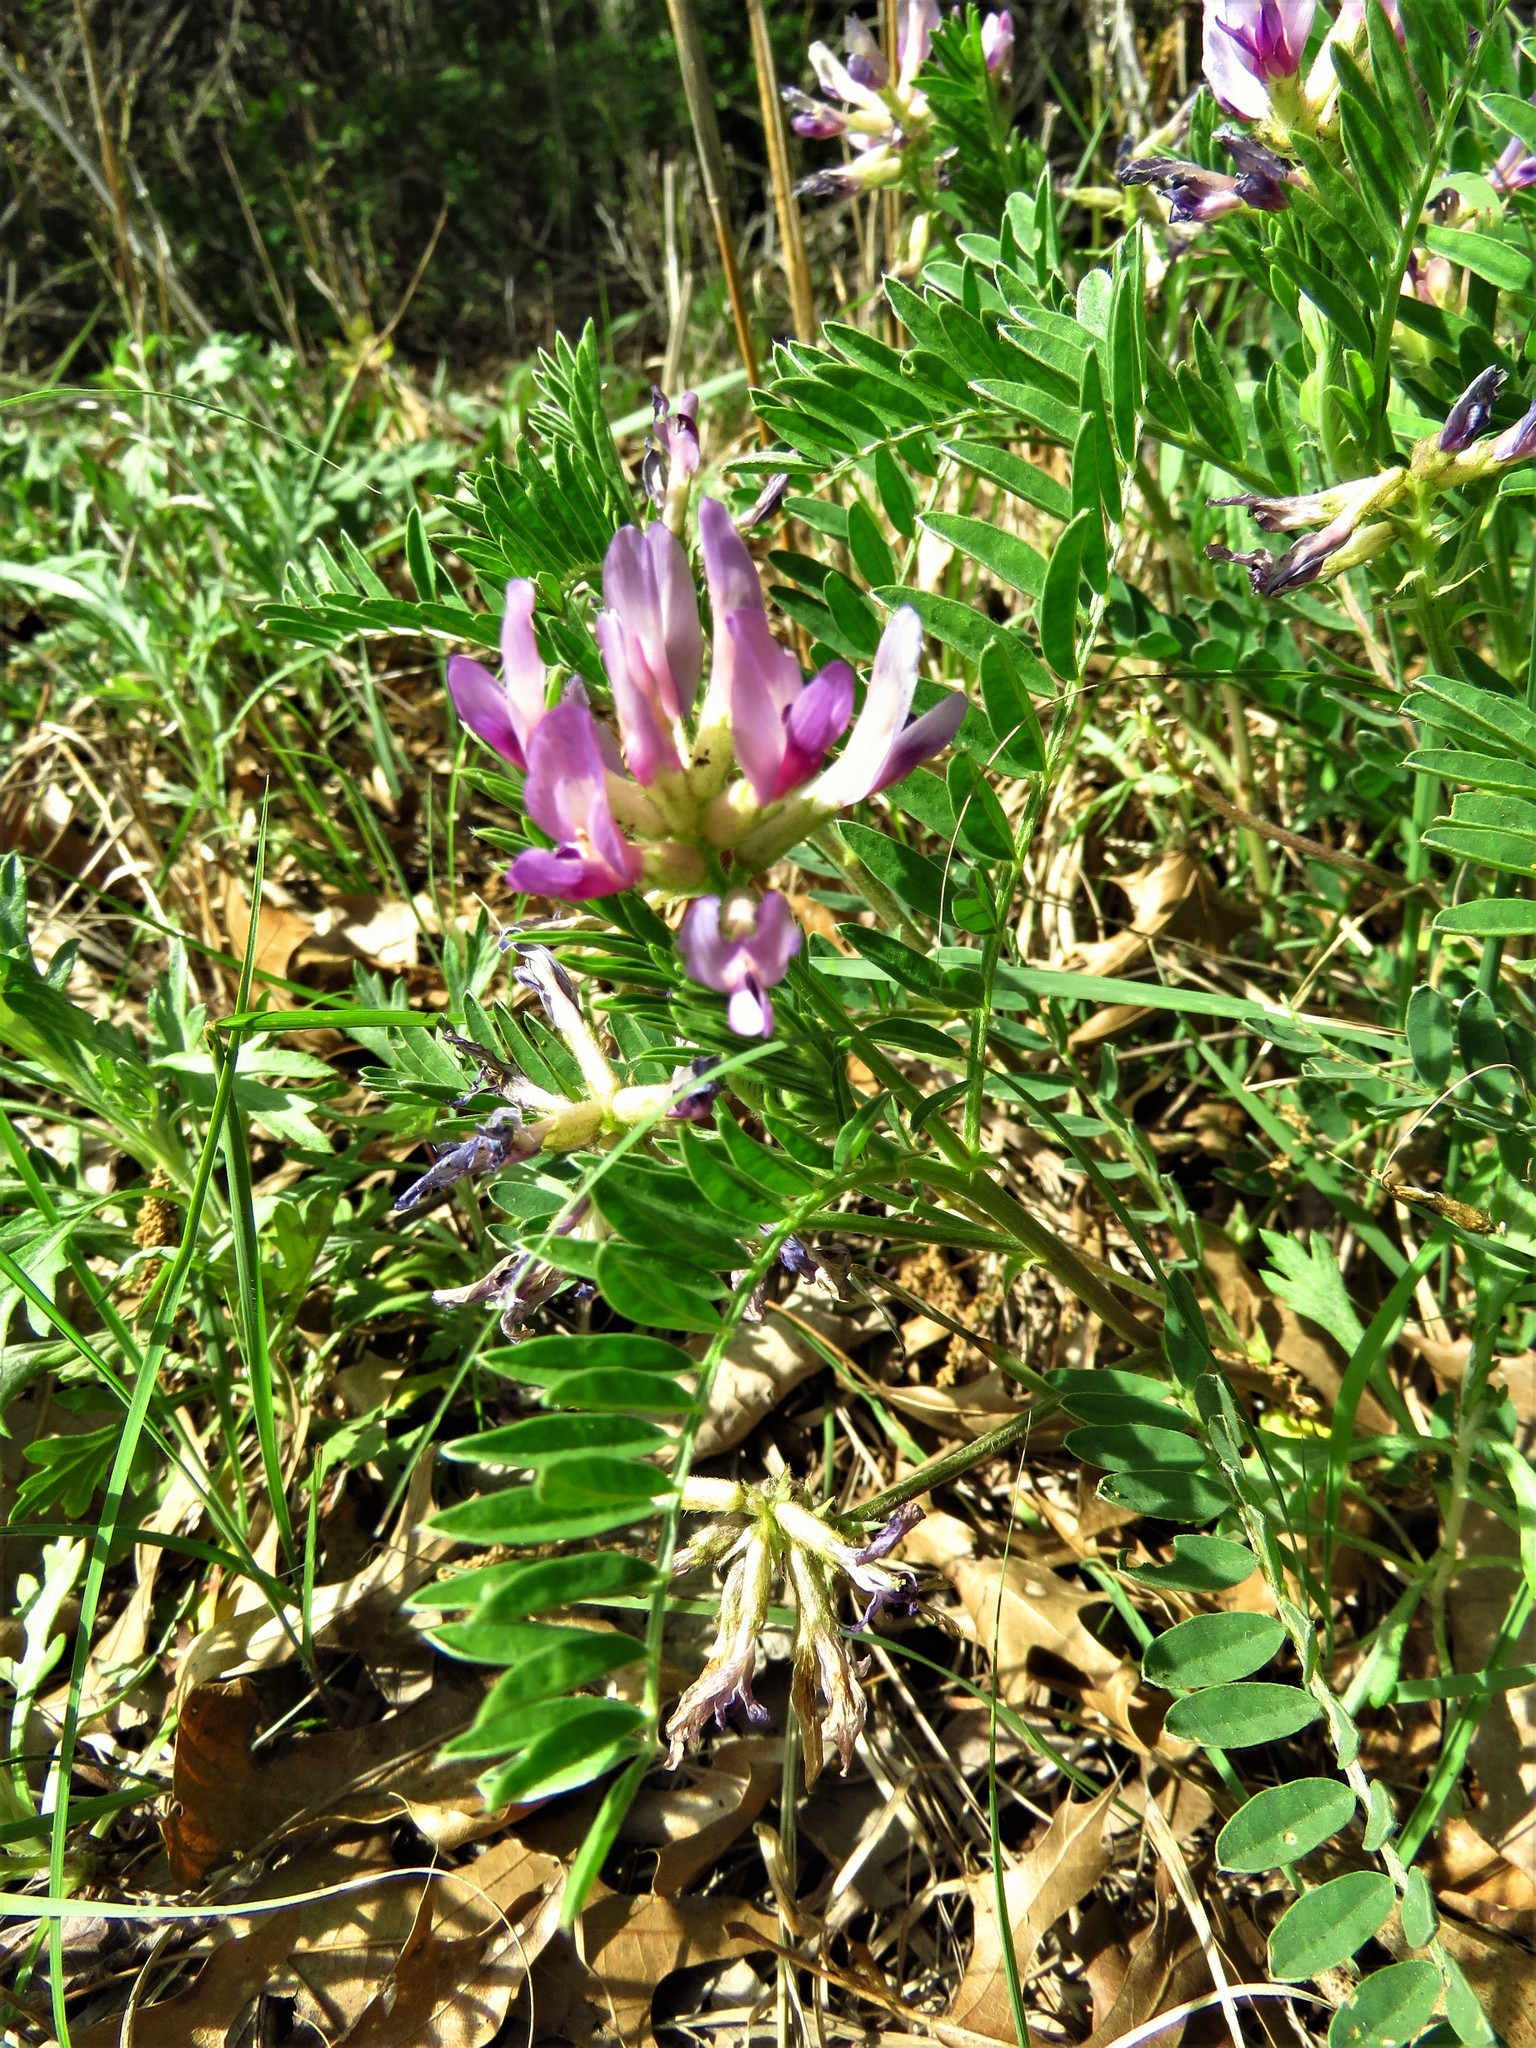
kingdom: Plantae
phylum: Tracheophyta
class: Magnoliopsida
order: Fabales
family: Fabaceae
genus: Astragalus
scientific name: Astragalus crassicarpus
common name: Ground-plum milk-vetch
